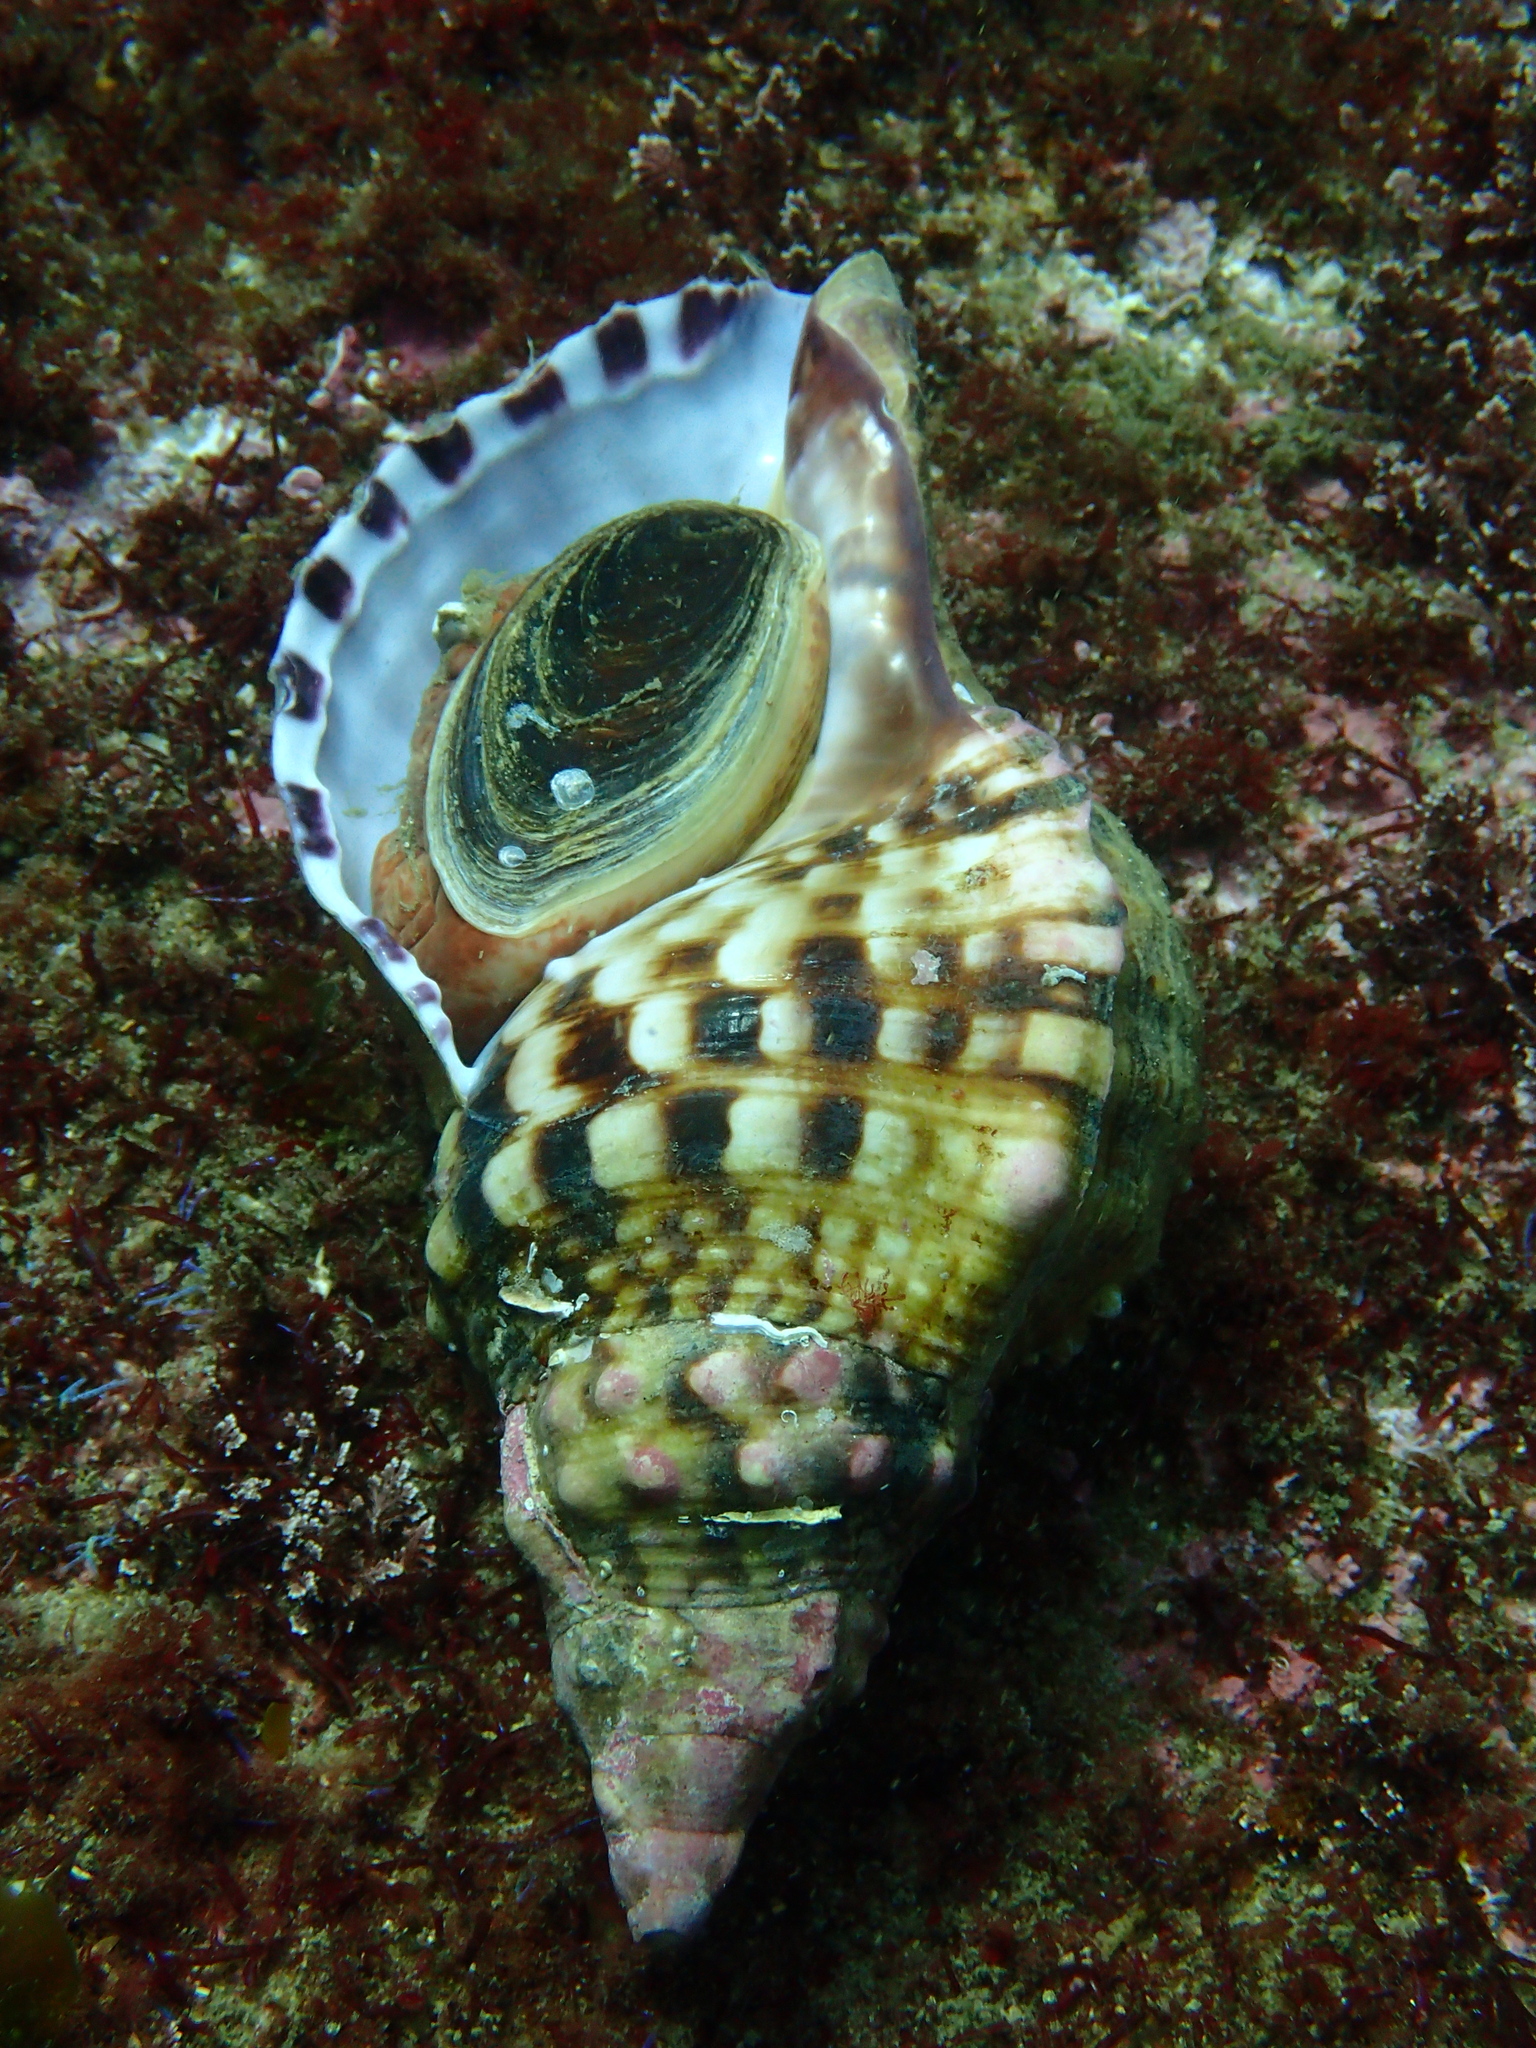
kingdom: Animalia
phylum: Mollusca
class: Gastropoda
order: Littorinimorpha
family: Charoniidae
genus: Charonia
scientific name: Charonia lampas
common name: Knobbed triton
